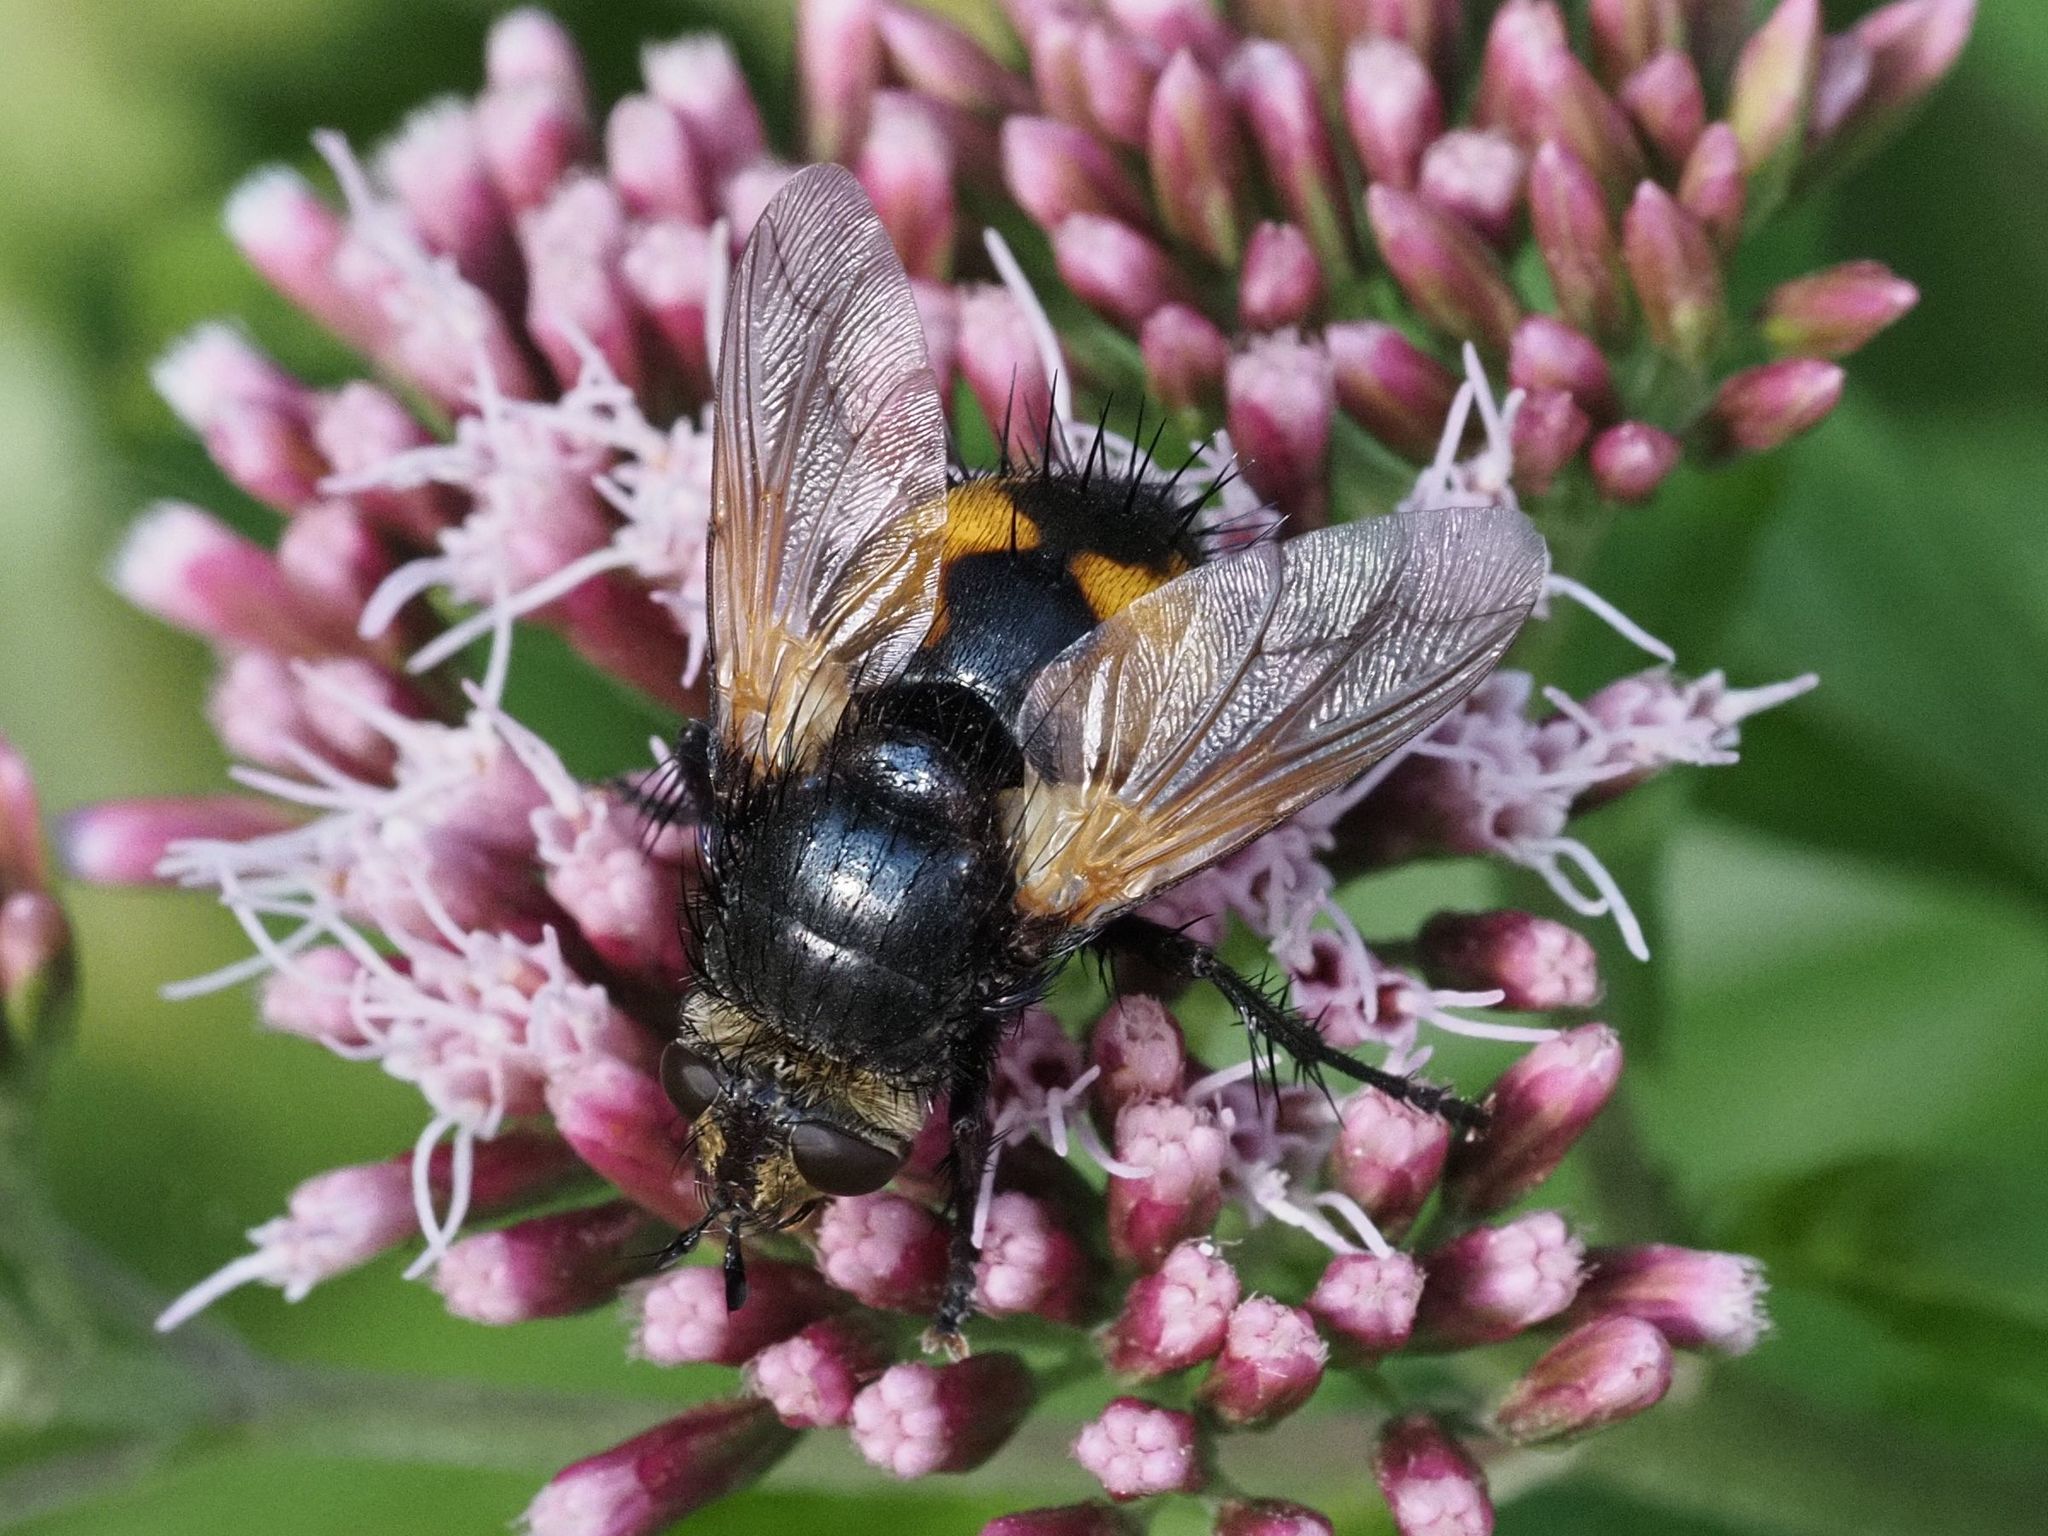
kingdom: Animalia
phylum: Arthropoda
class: Insecta
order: Diptera
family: Tachinidae
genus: Nowickia
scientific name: Nowickia ferox
